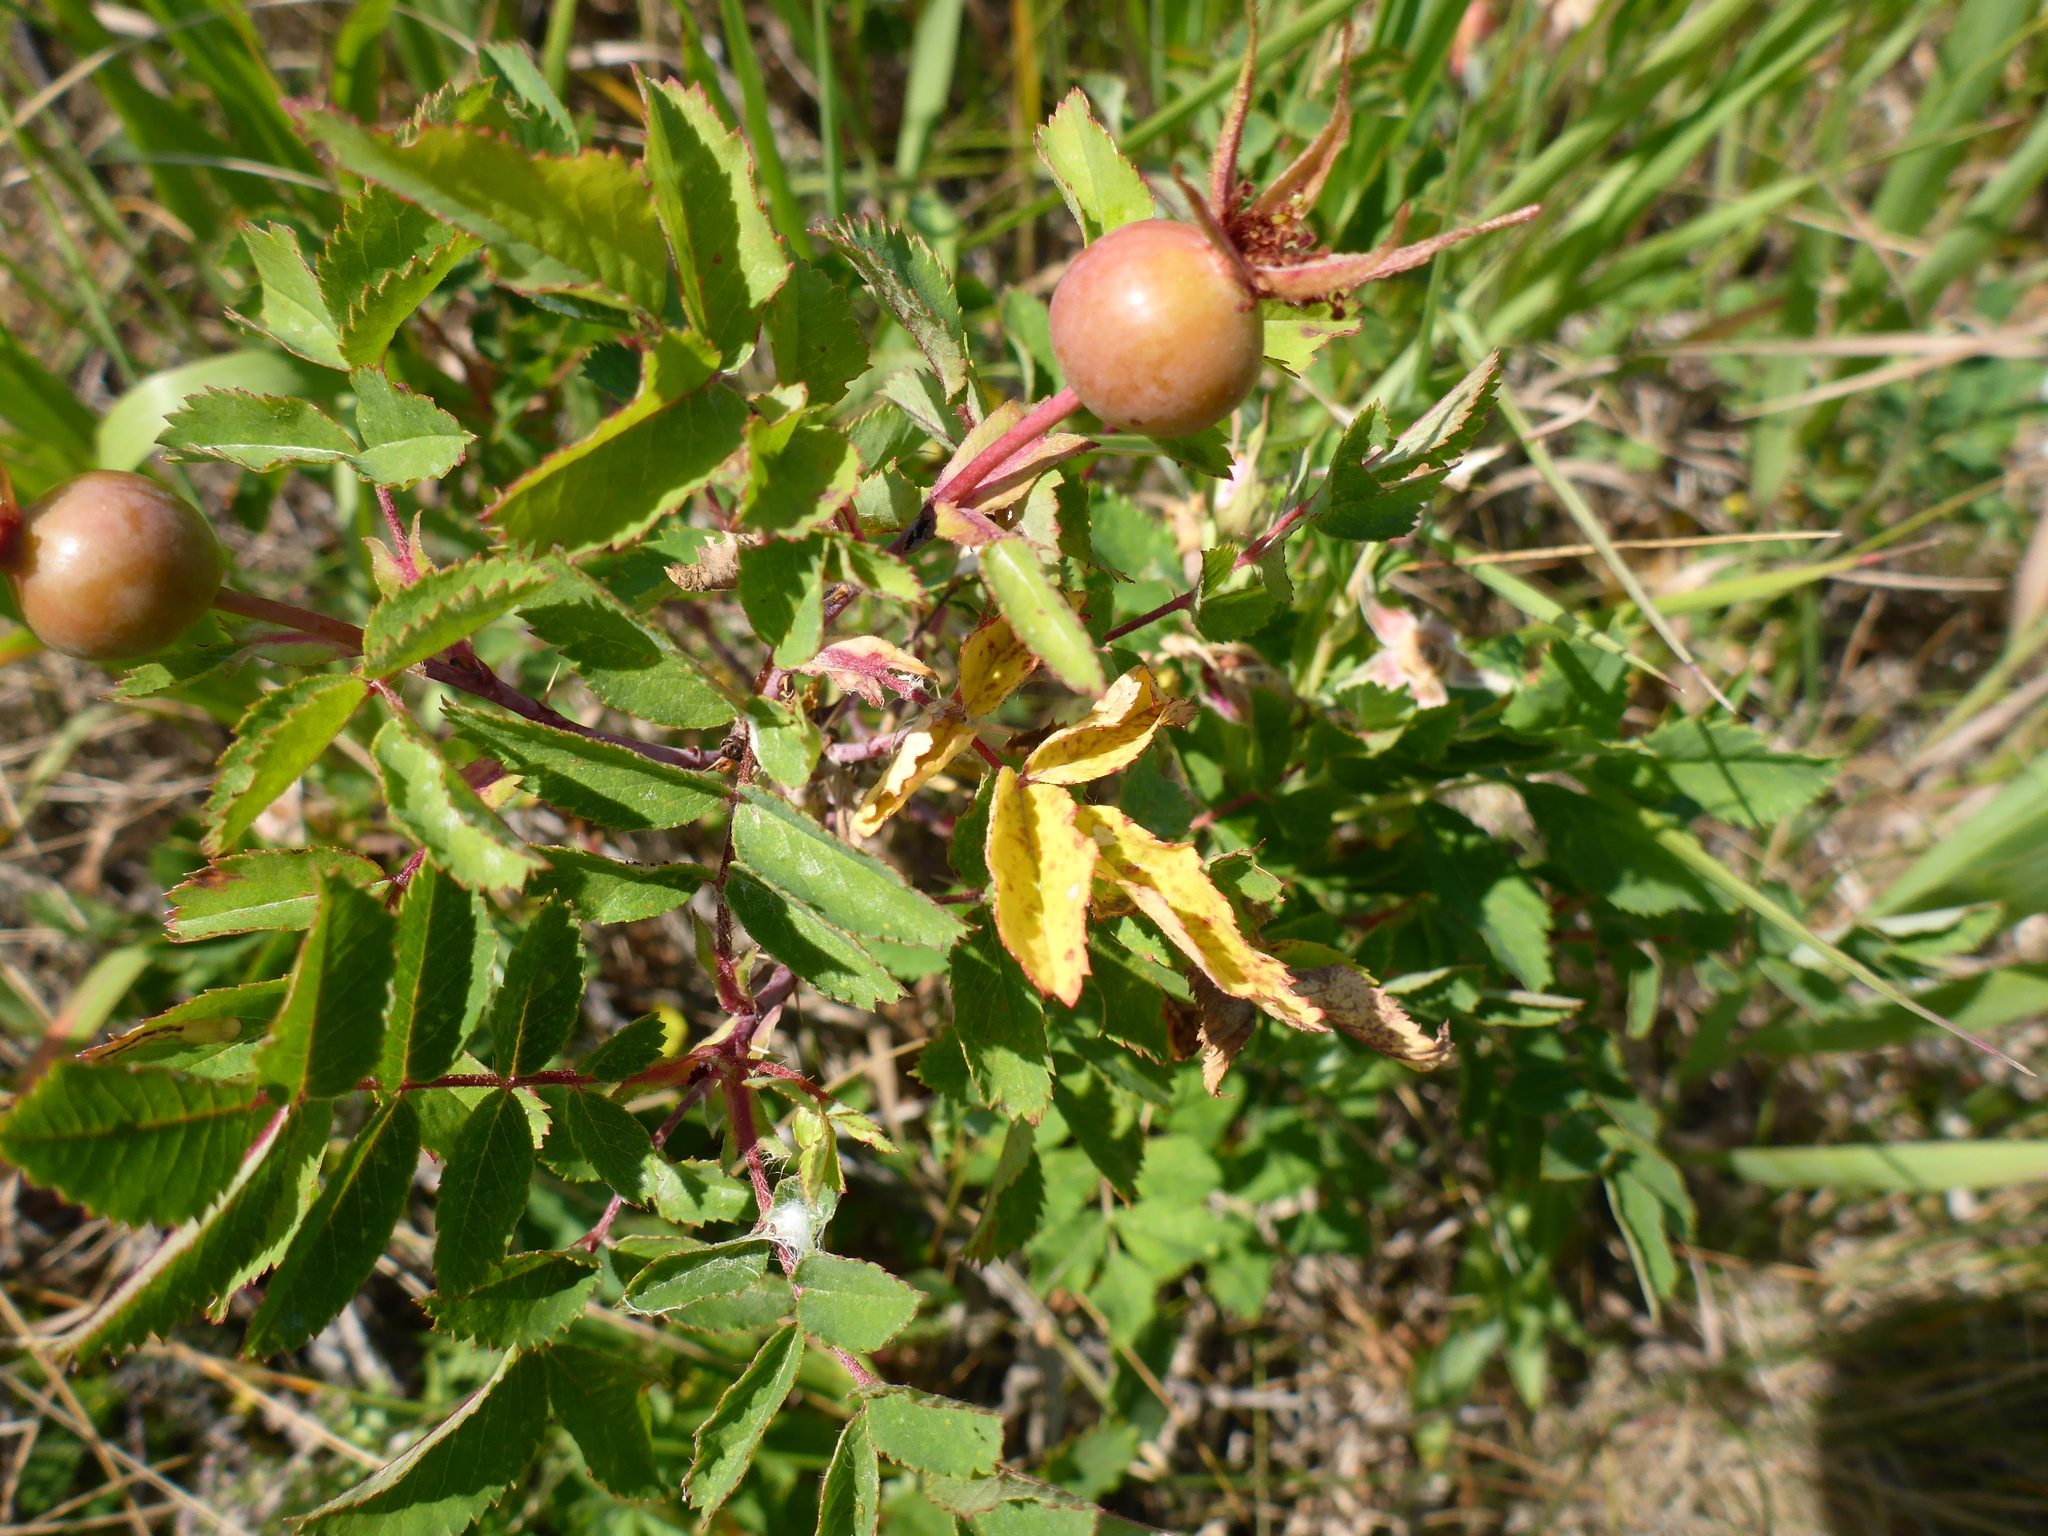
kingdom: Plantae
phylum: Tracheophyta
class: Magnoliopsida
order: Rosales
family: Rosaceae
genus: Rosa
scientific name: Rosa arkansana
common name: Prairie rose
